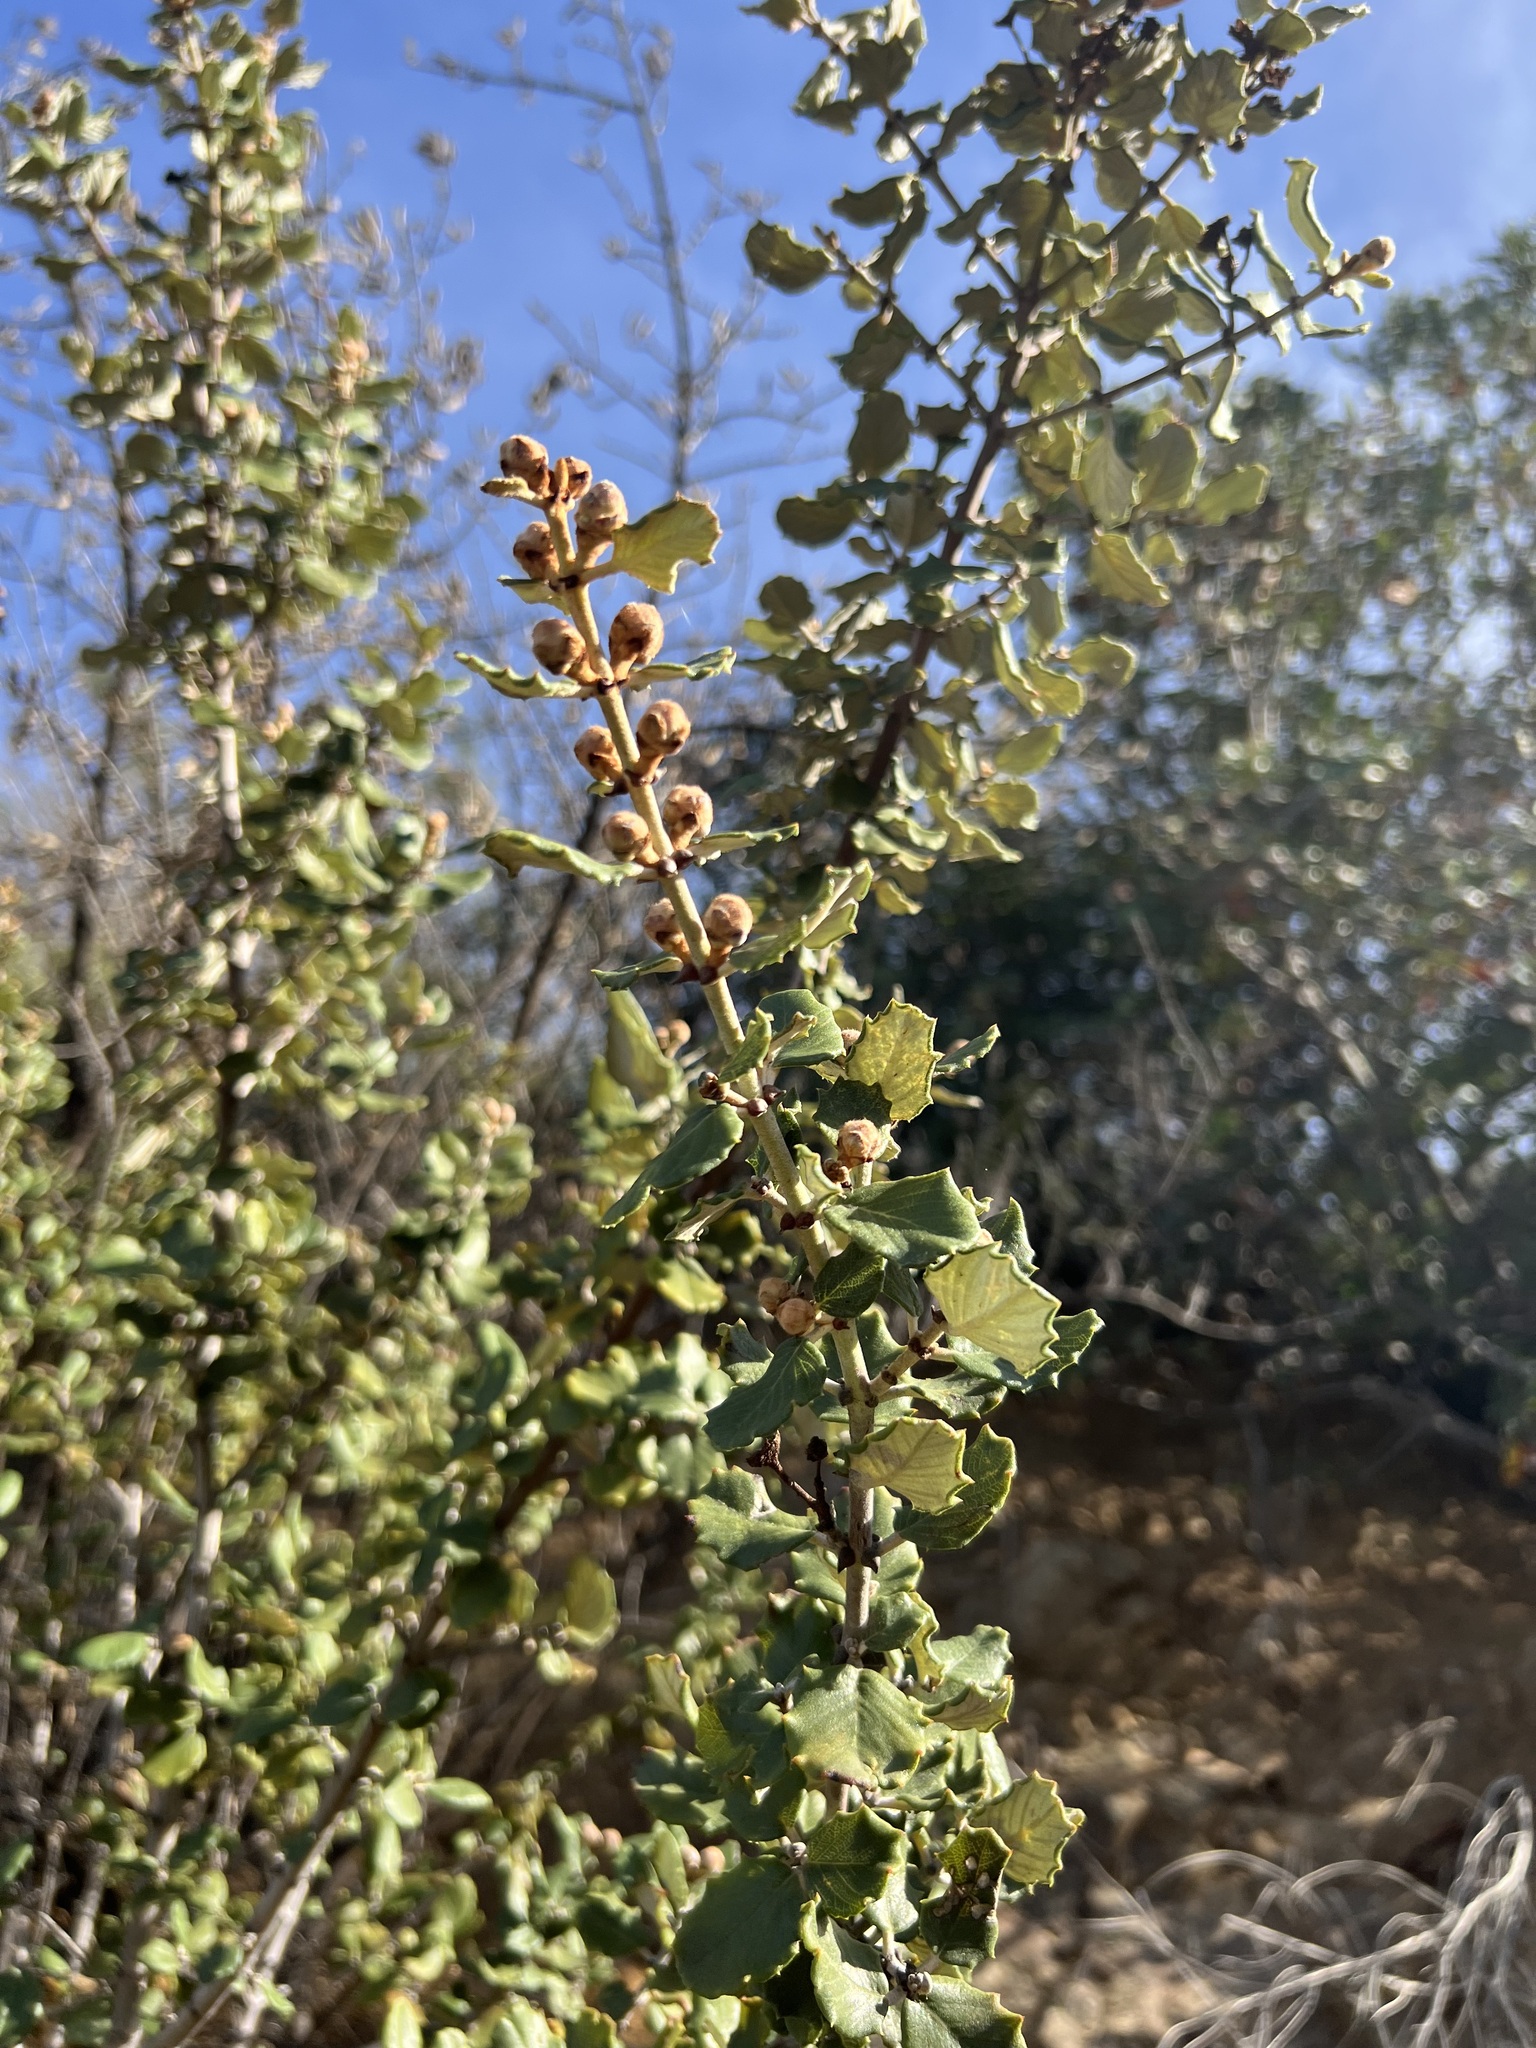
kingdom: Plantae
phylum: Tracheophyta
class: Magnoliopsida
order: Rosales
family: Rhamnaceae
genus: Ceanothus
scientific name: Ceanothus crassifolius
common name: Hoaryleaf ceanothus
